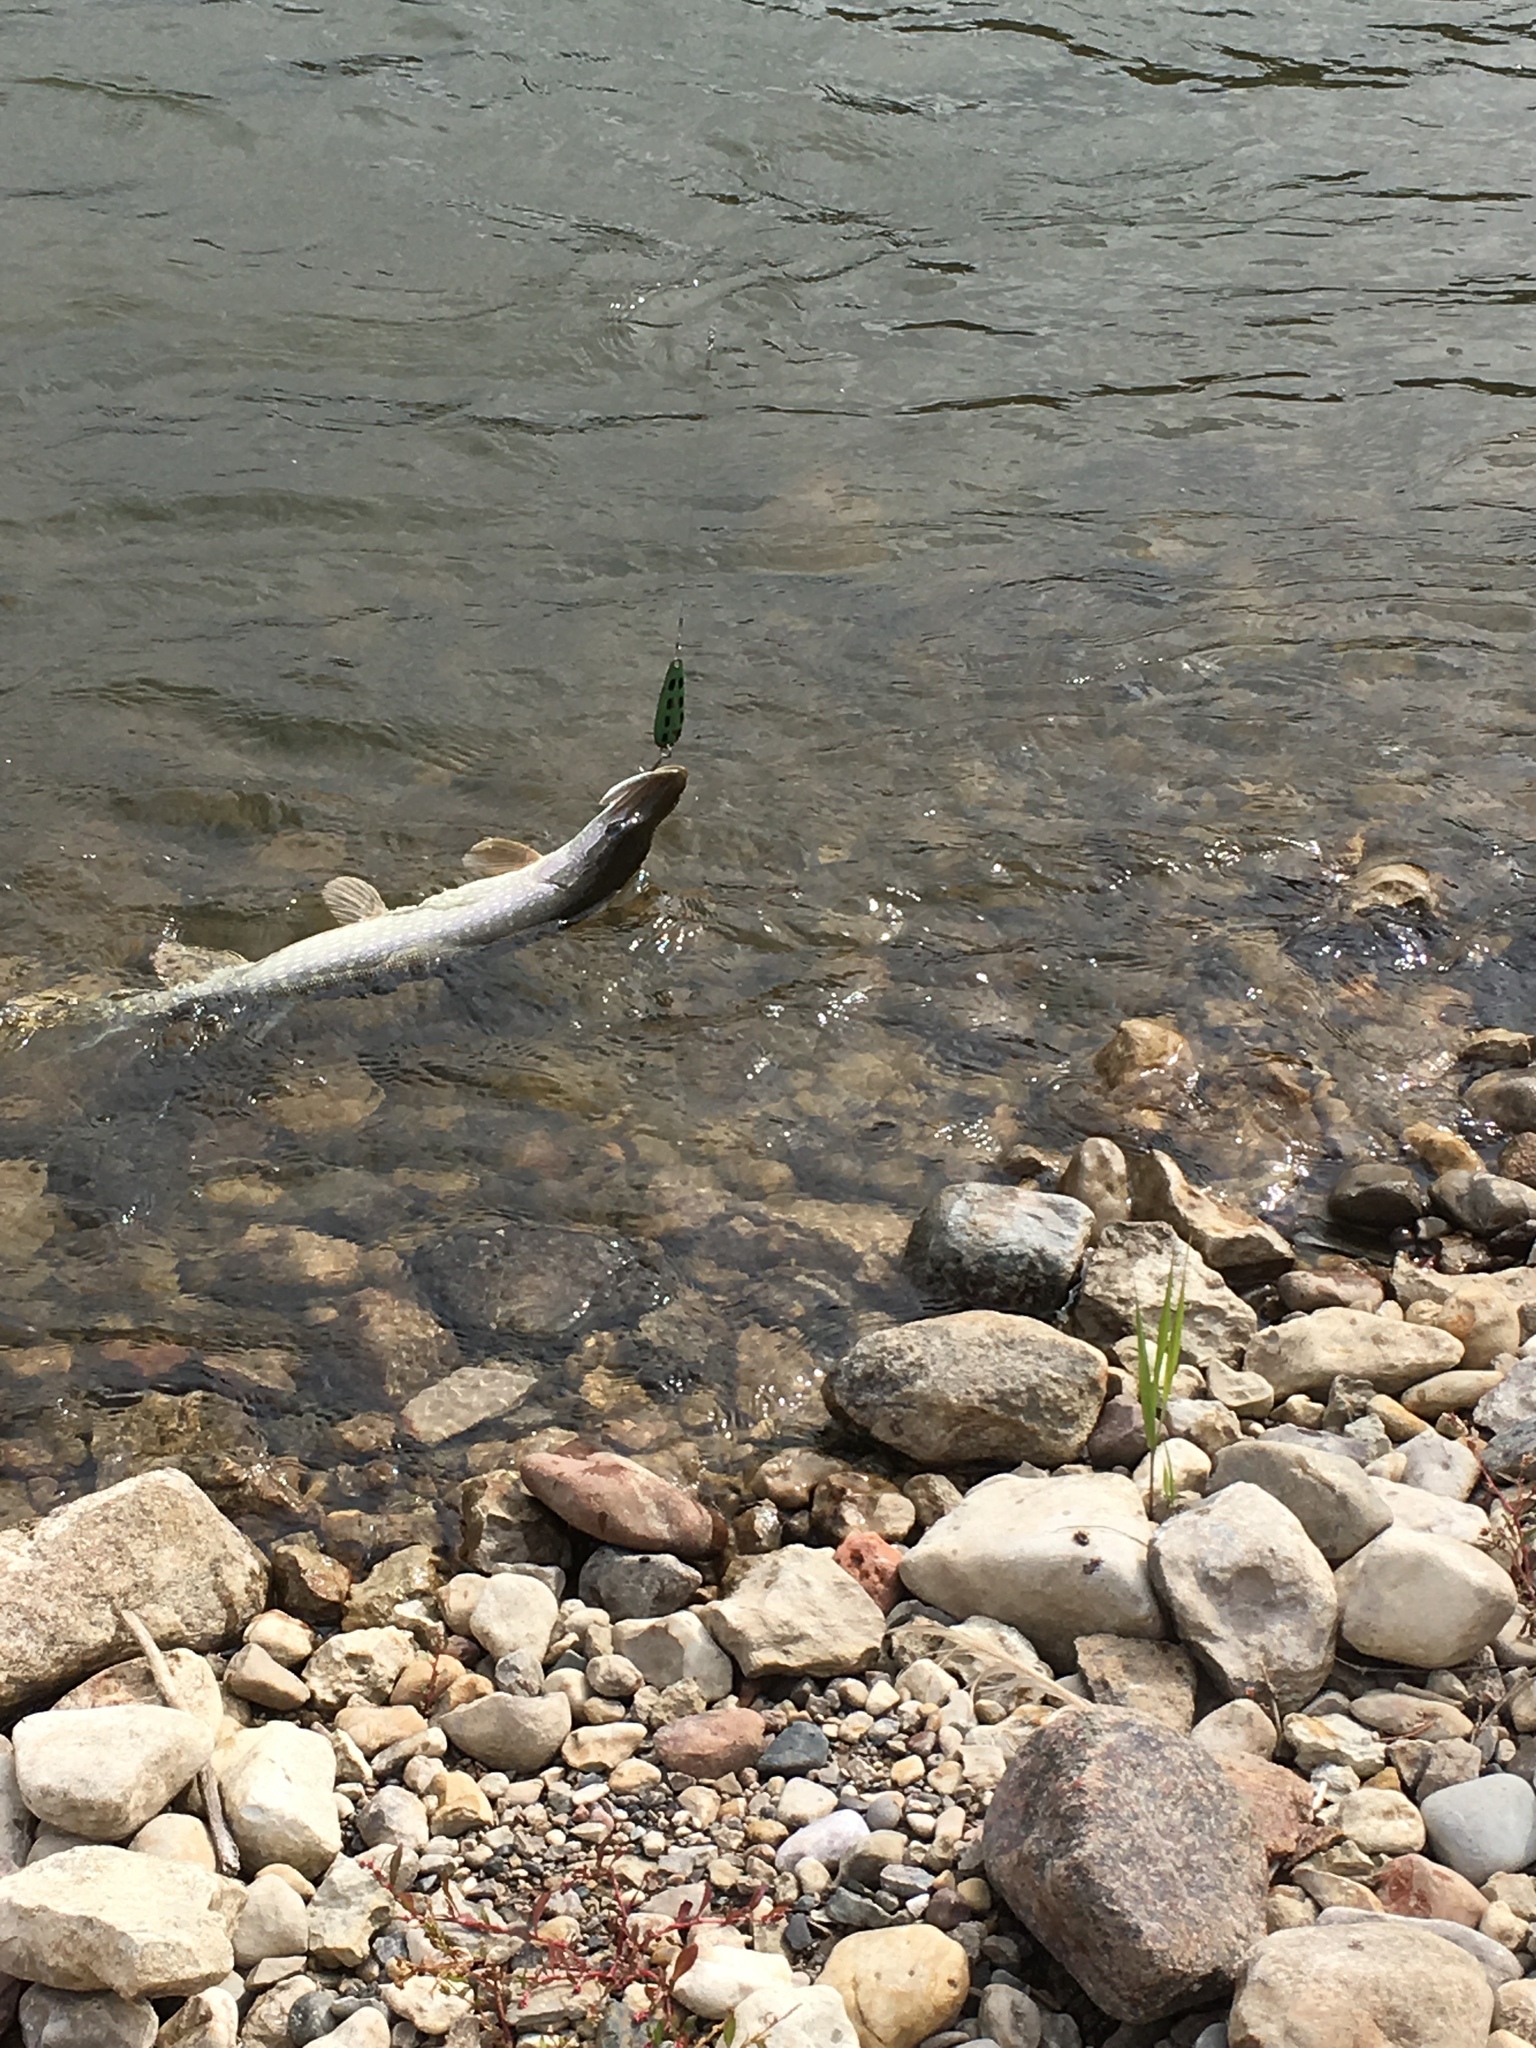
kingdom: Animalia
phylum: Chordata
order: Esociformes
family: Esocidae
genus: Esox
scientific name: Esox lucius
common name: Northern pike
